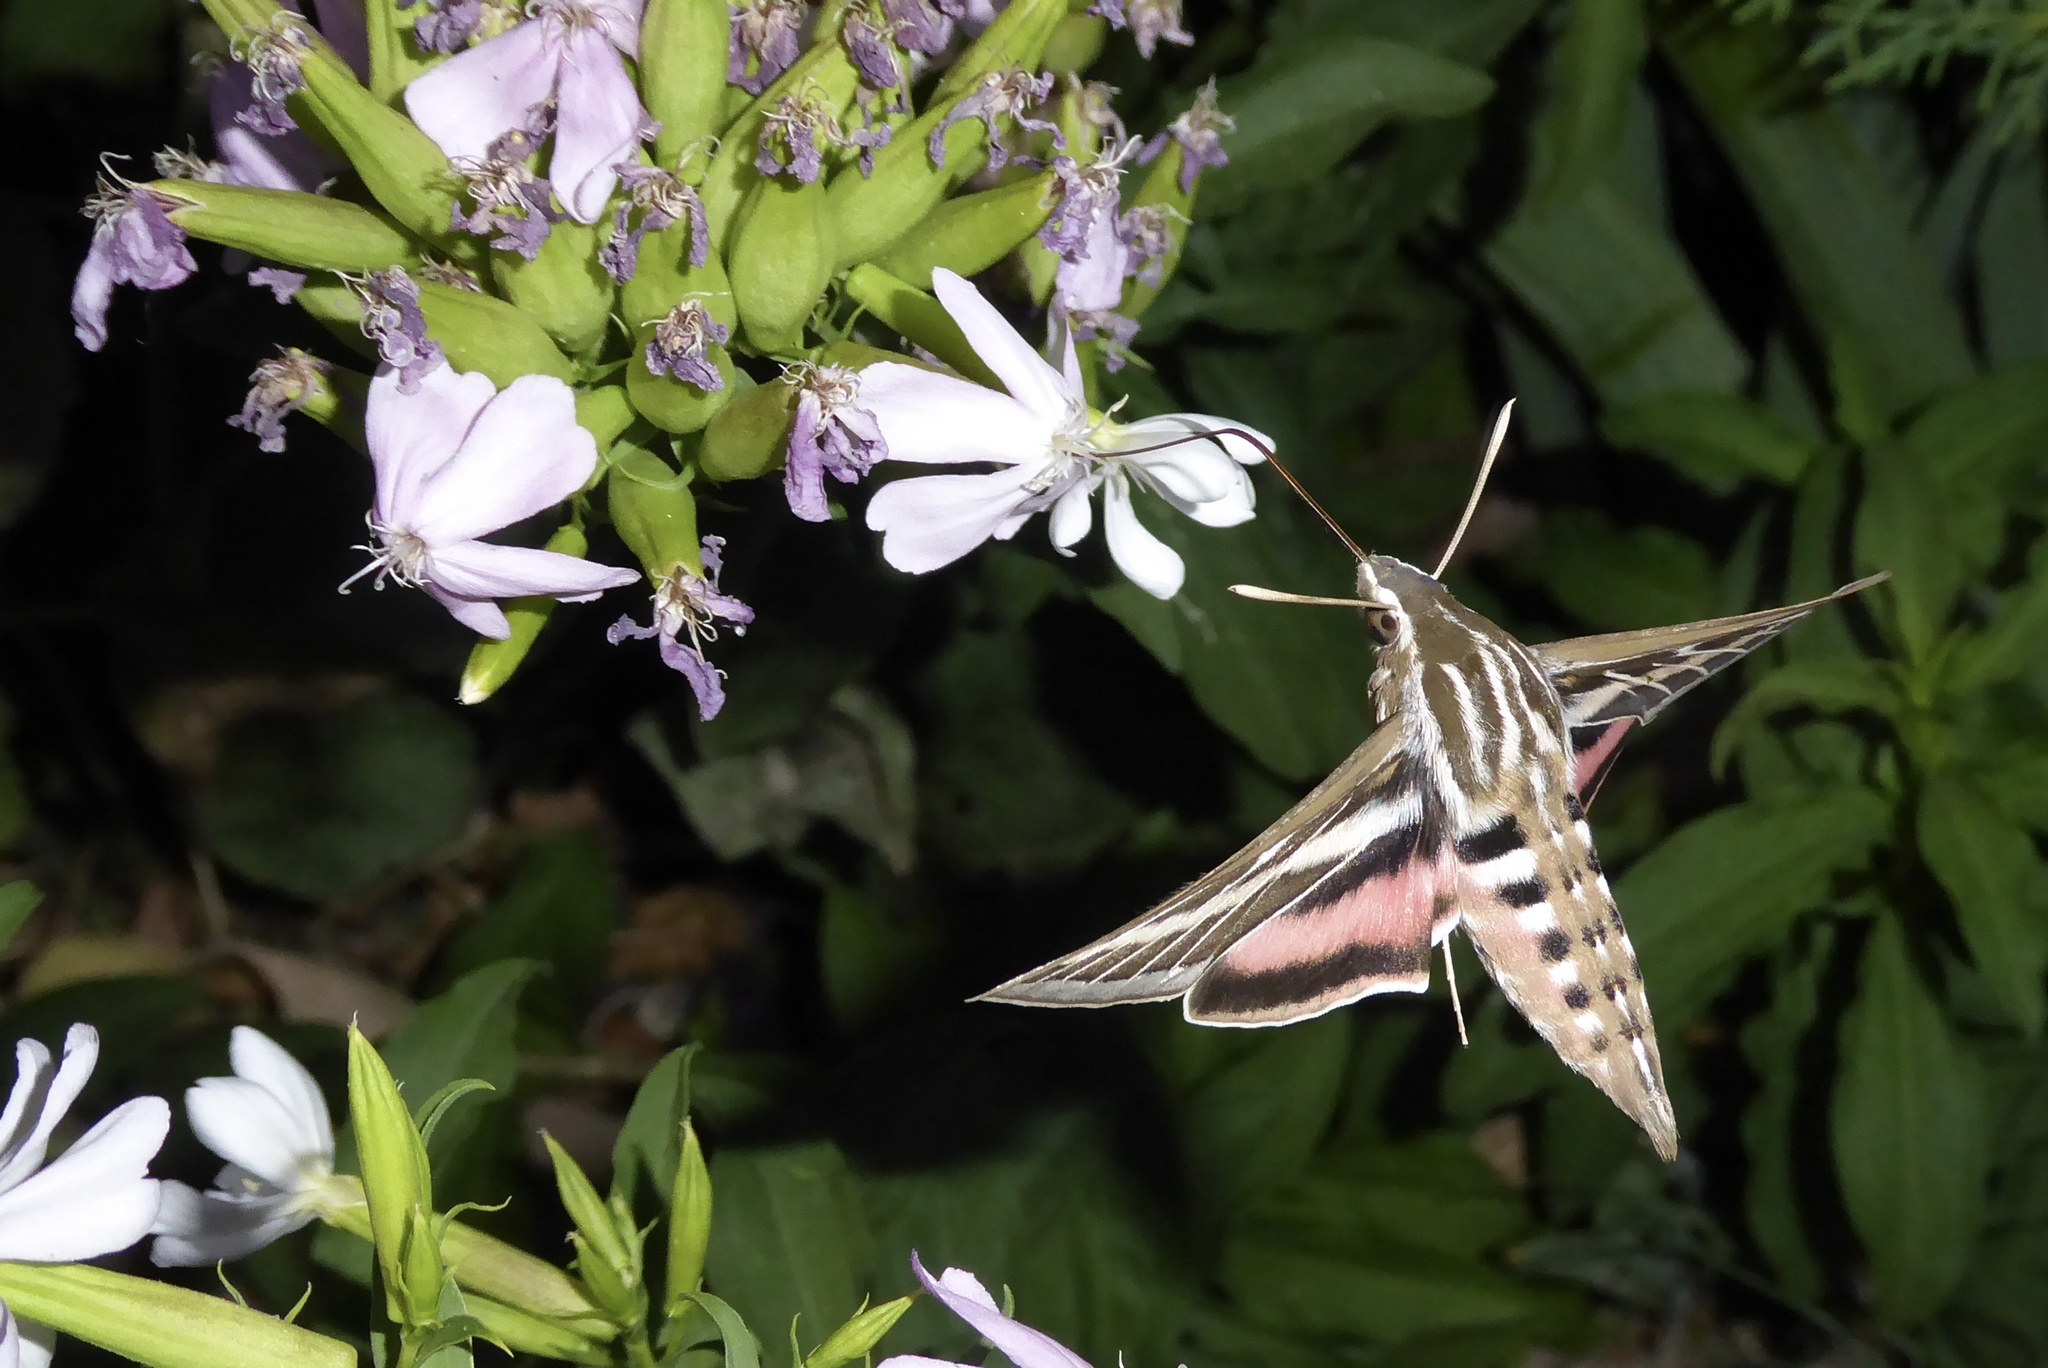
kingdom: Animalia
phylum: Arthropoda
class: Insecta
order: Lepidoptera
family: Sphingidae
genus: Hyles
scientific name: Hyles lineata
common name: White-lined sphinx
